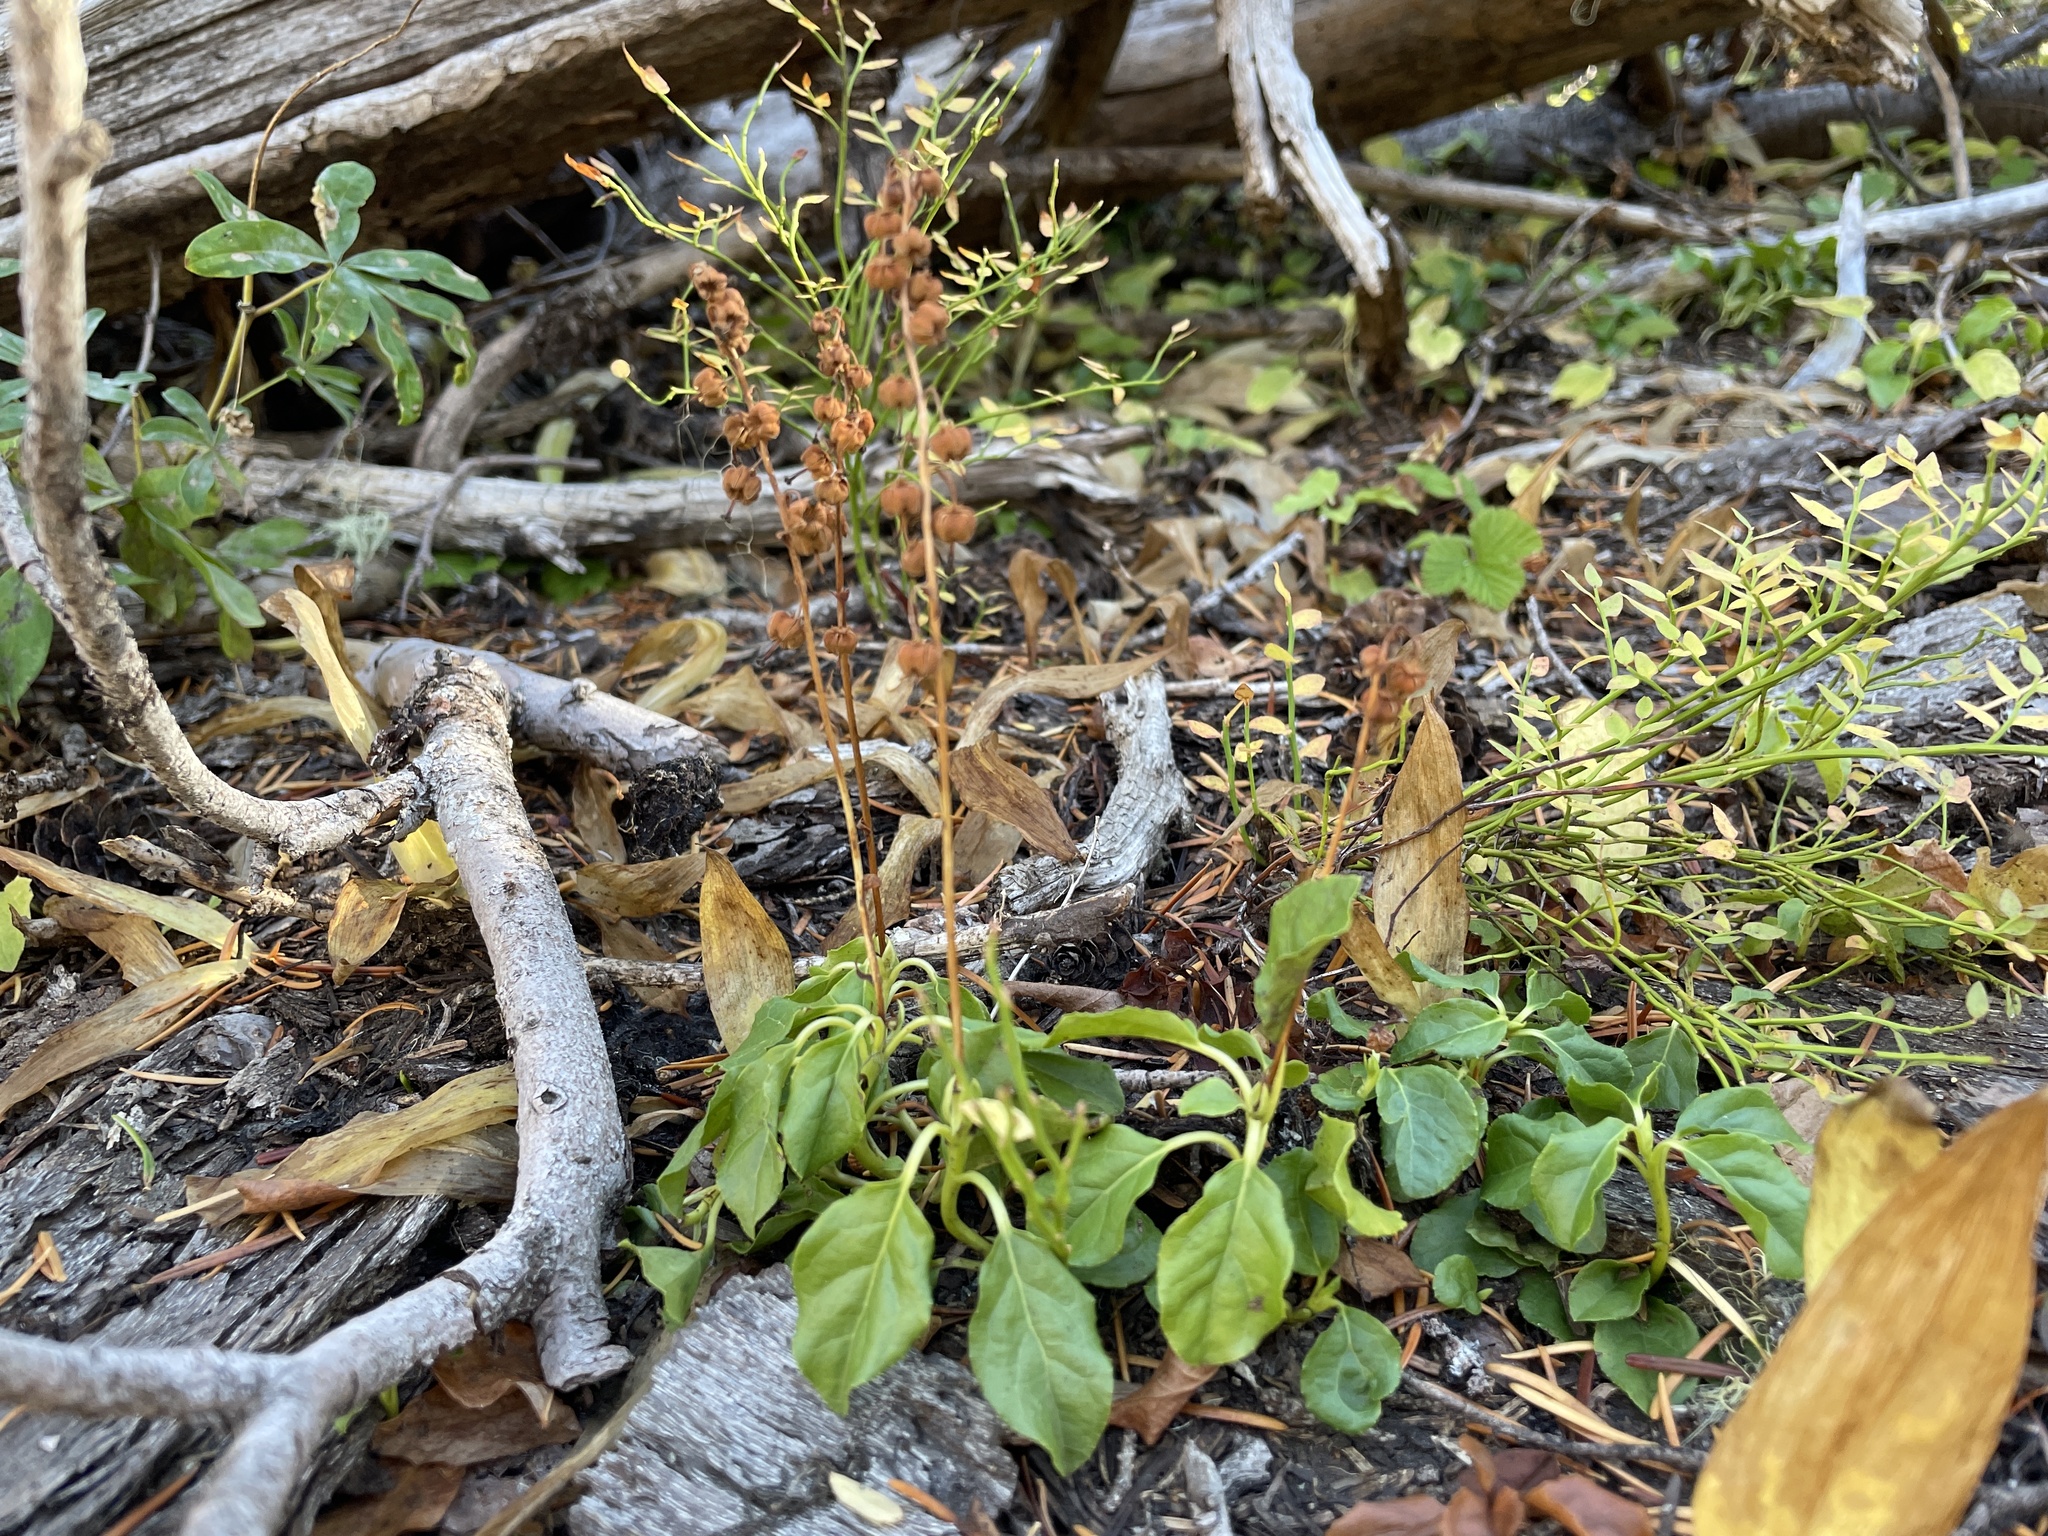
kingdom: Plantae
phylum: Tracheophyta
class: Magnoliopsida
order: Ericales
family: Ericaceae
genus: Orthilia
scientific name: Orthilia secunda
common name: One-sided orthilia
